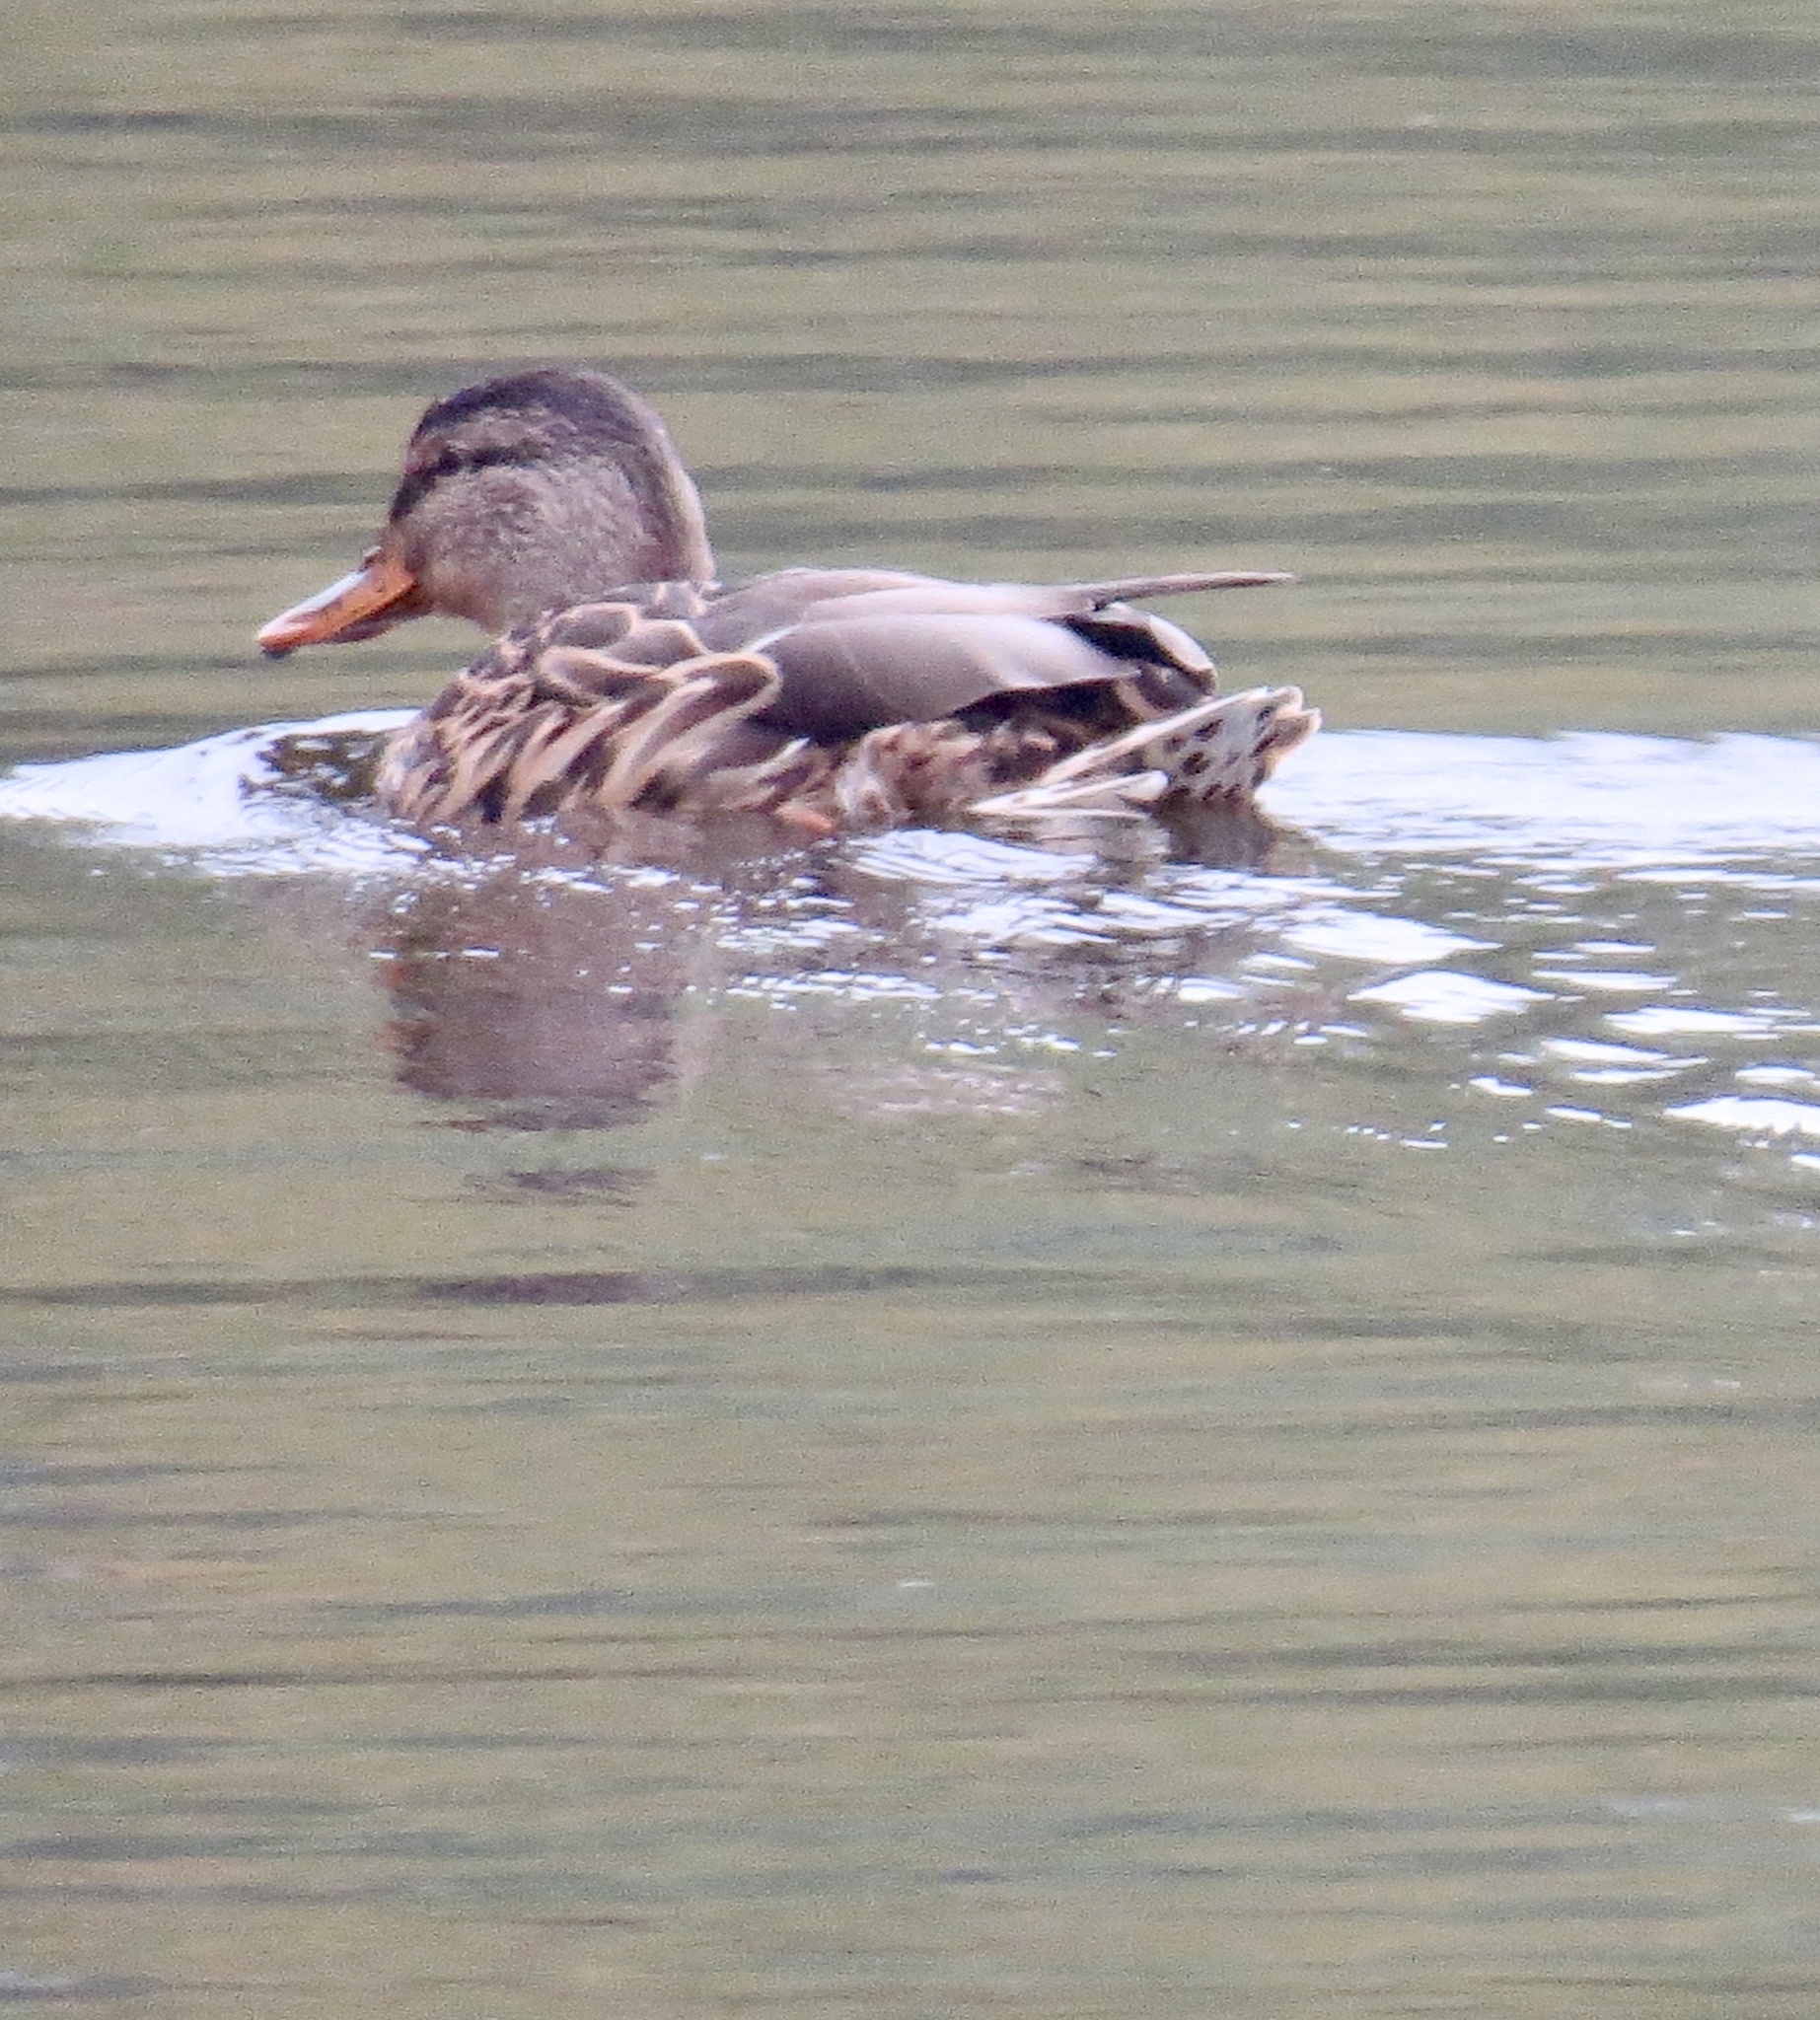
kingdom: Animalia
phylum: Chordata
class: Aves
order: Anseriformes
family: Anatidae
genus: Anas
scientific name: Anas platyrhynchos
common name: Mallard
